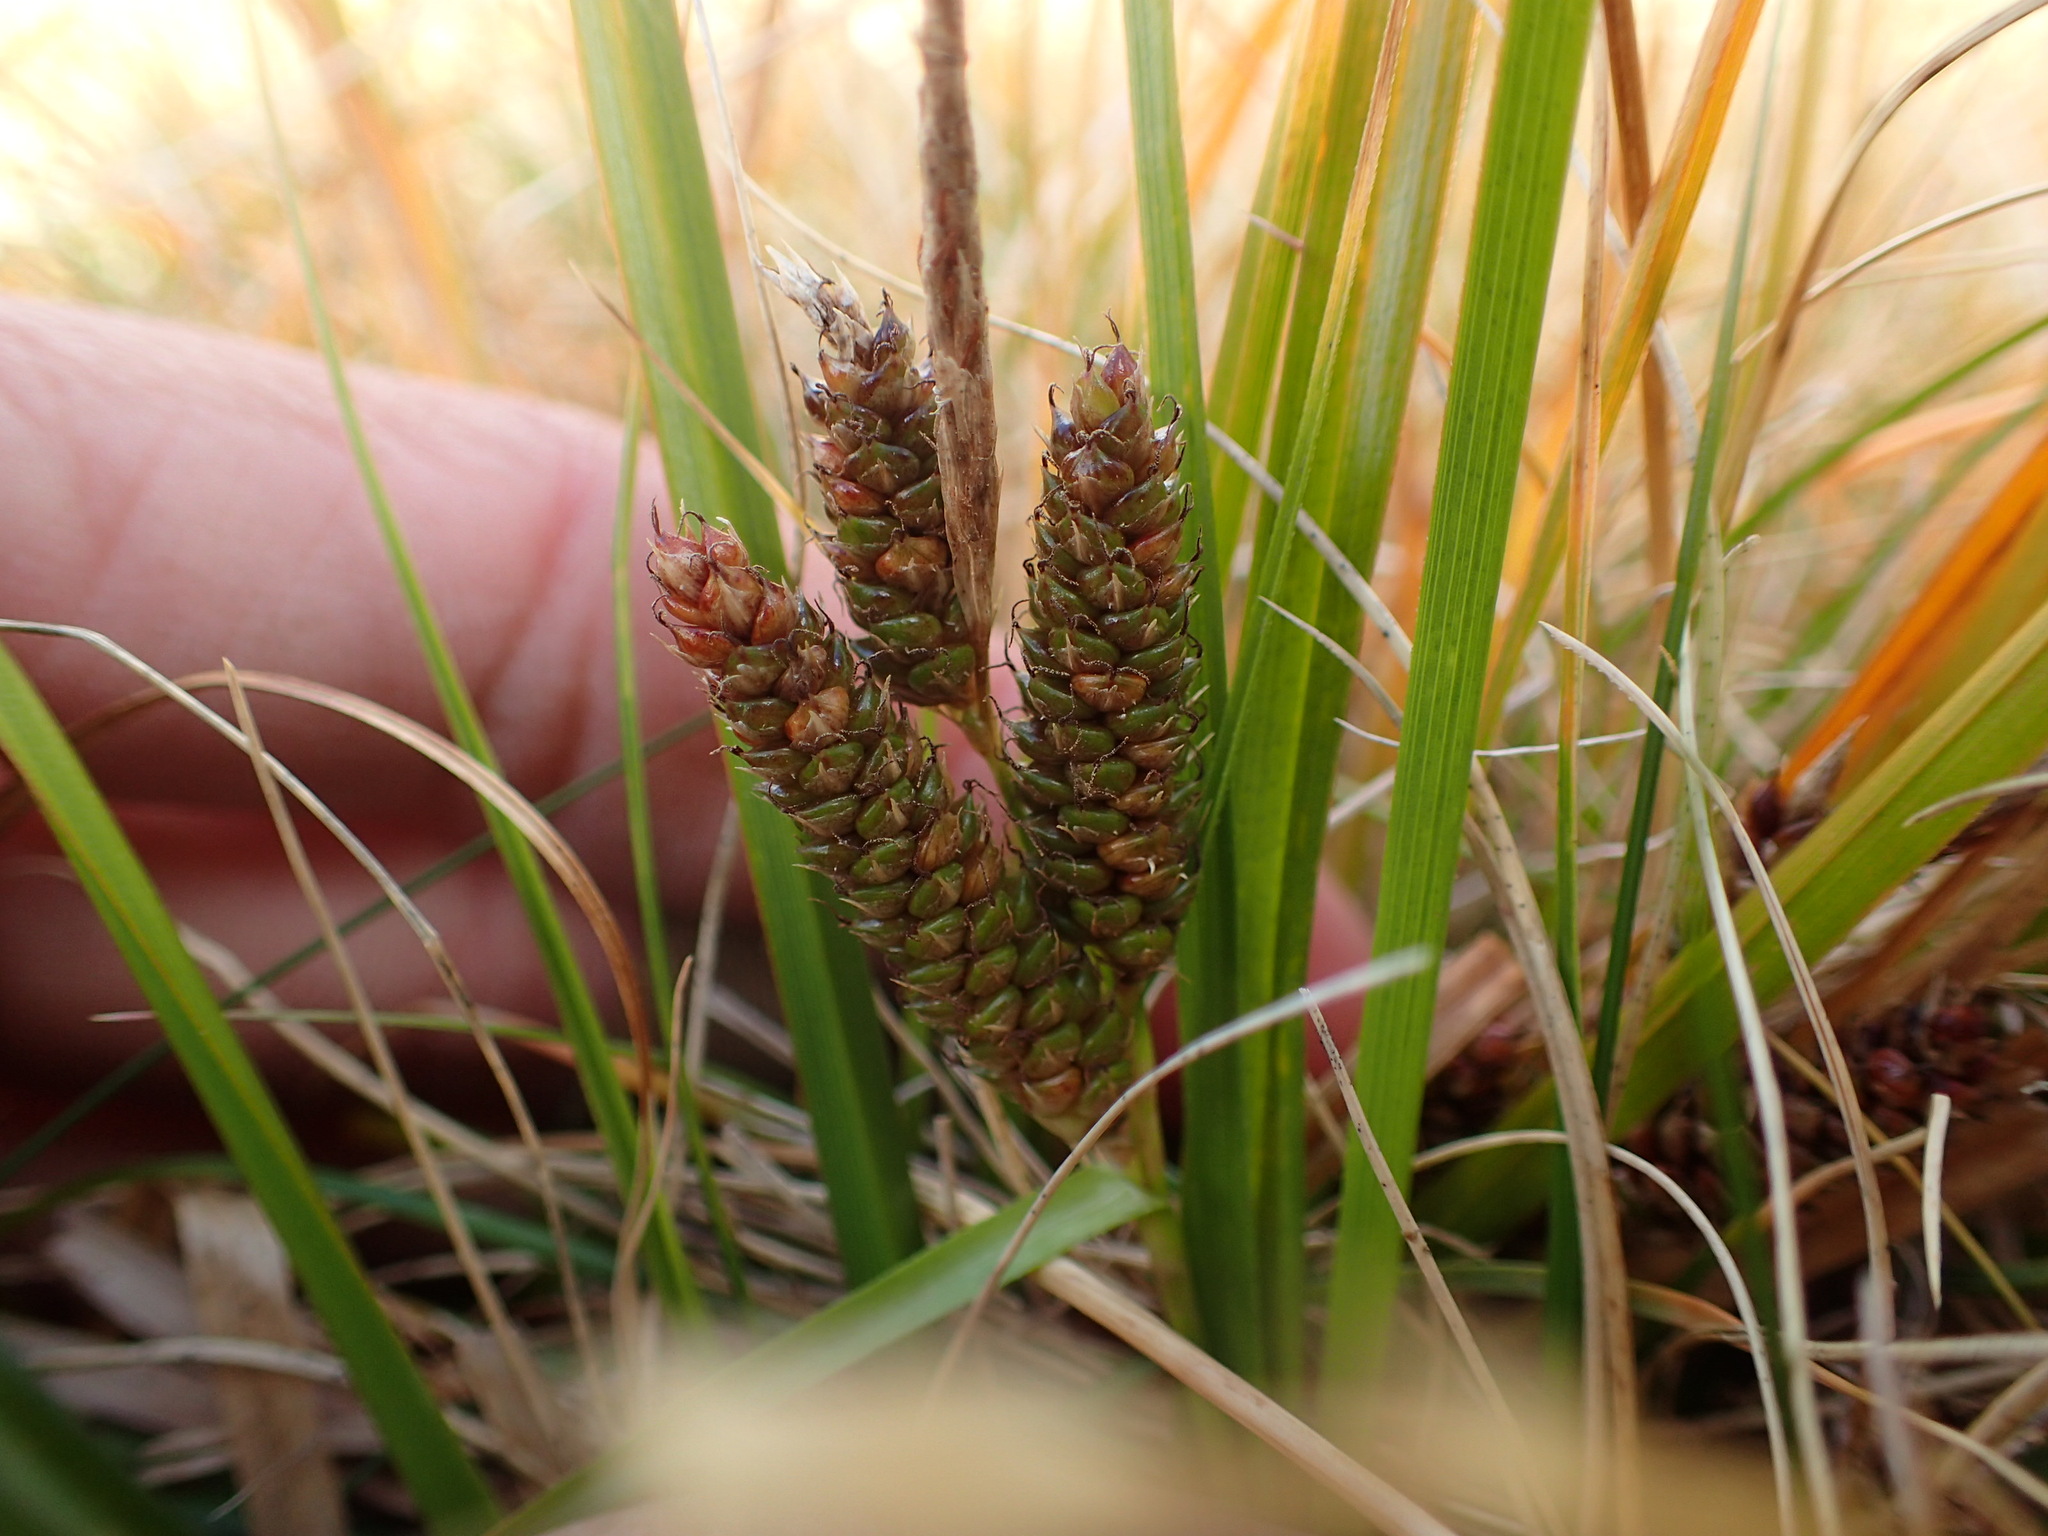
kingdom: Plantae
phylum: Tracheophyta
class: Liliopsida
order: Poales
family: Cyperaceae
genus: Carex
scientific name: Carex wakatipu
